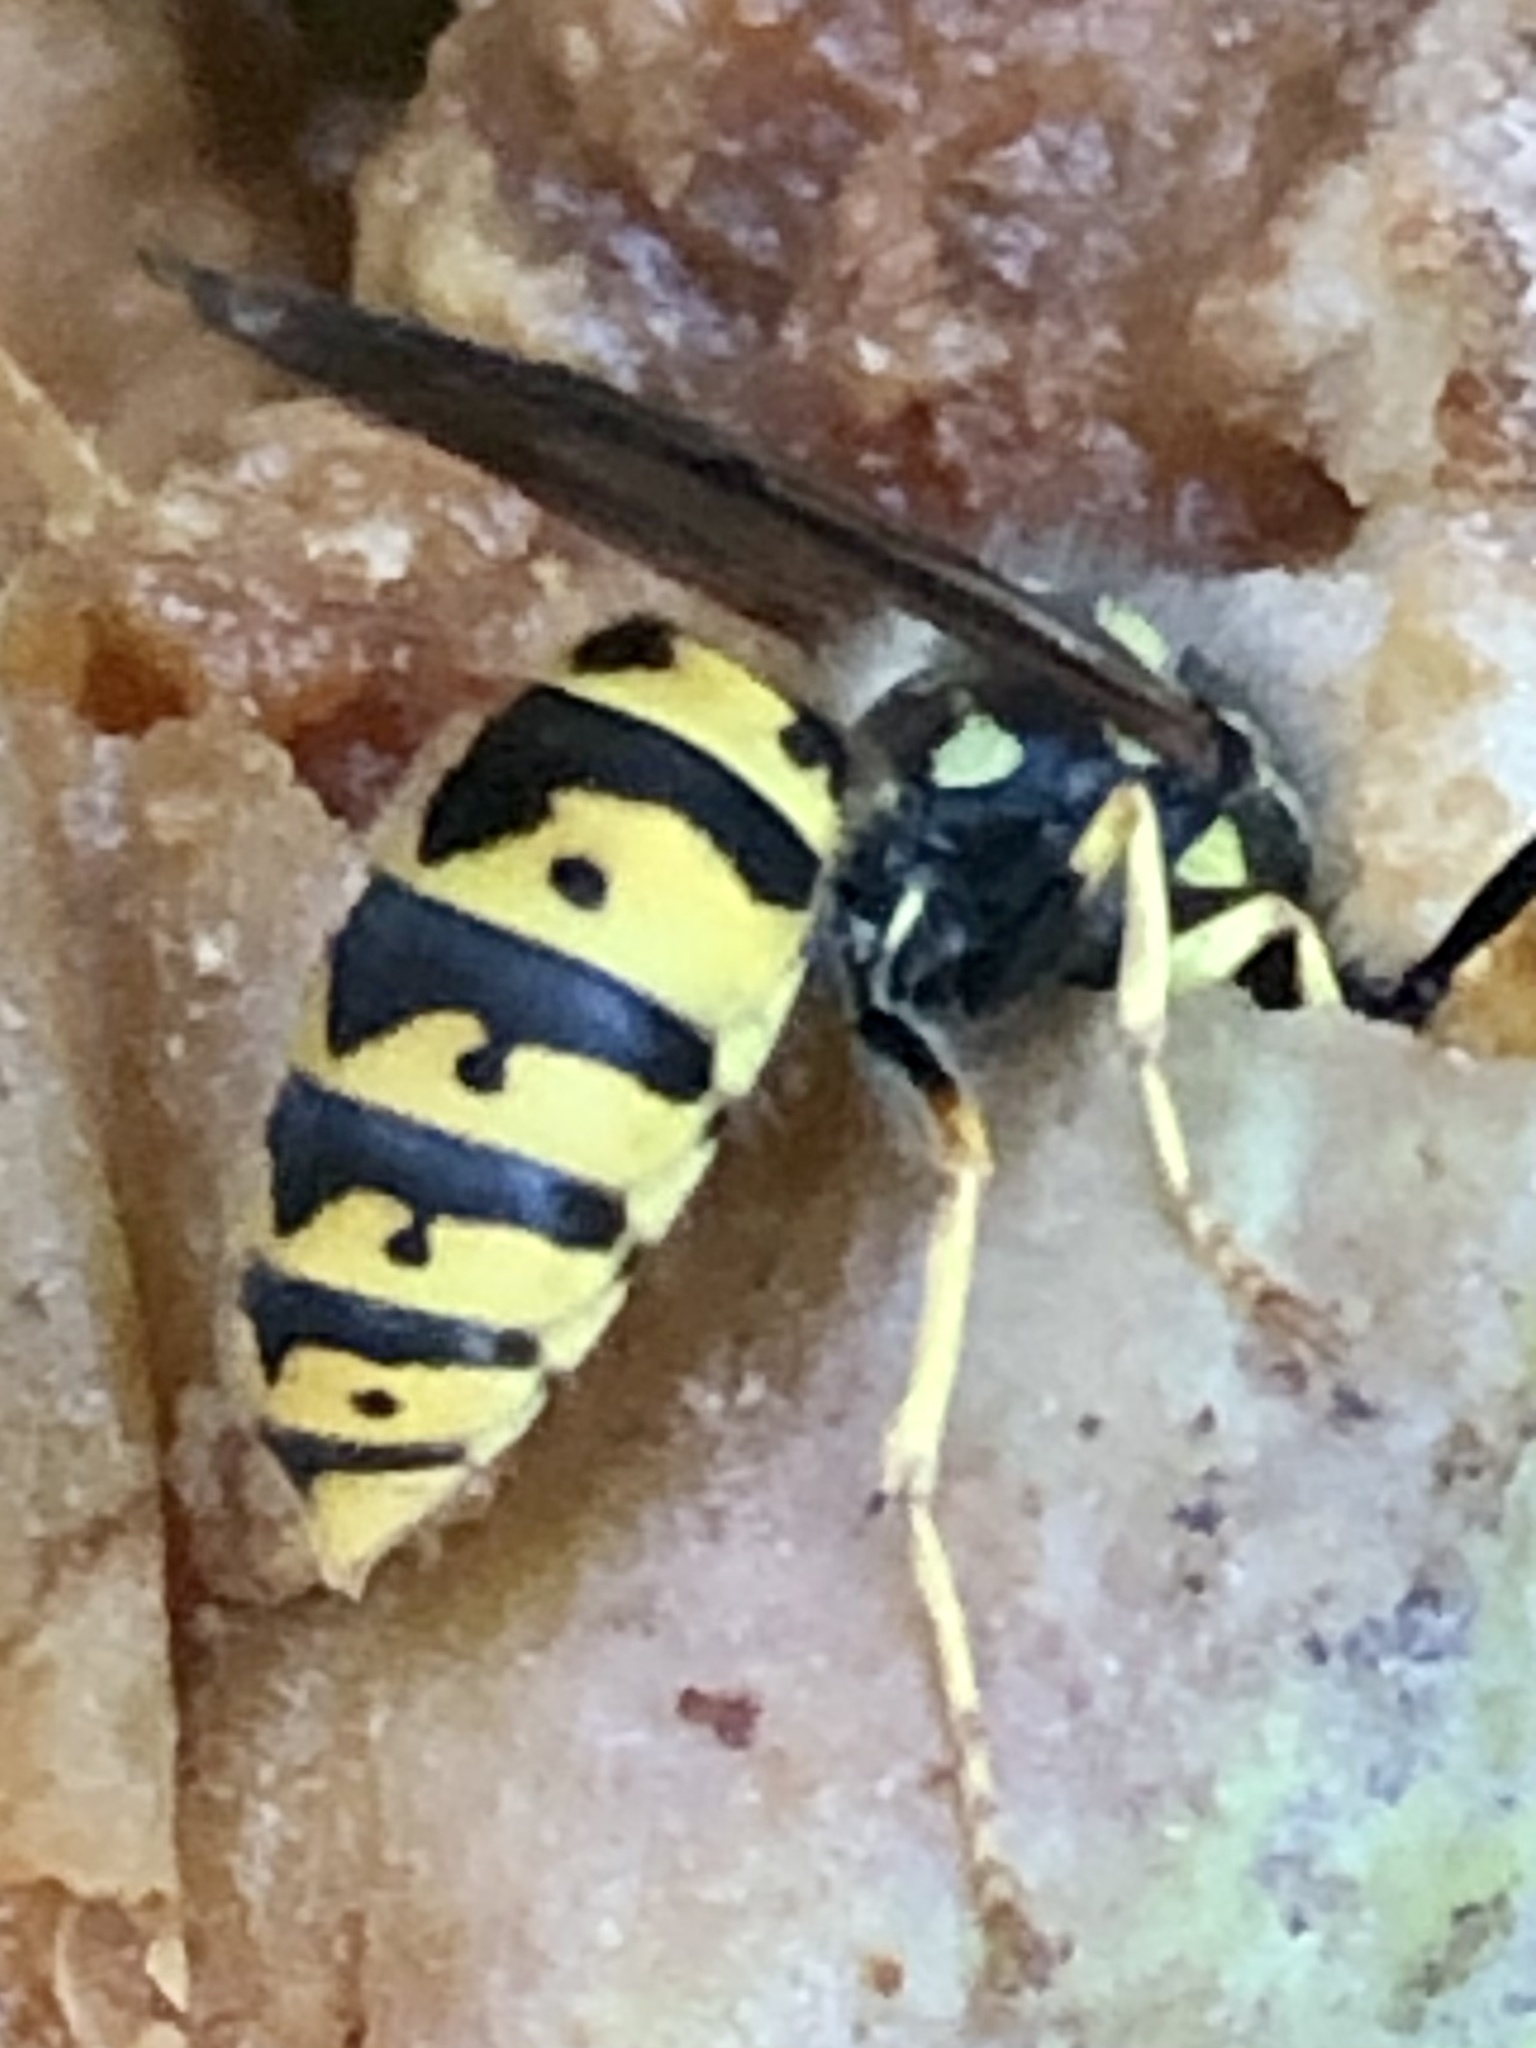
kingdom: Animalia
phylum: Arthropoda
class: Insecta
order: Hymenoptera
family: Vespidae
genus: Vespula
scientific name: Vespula germanica
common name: German wasp
